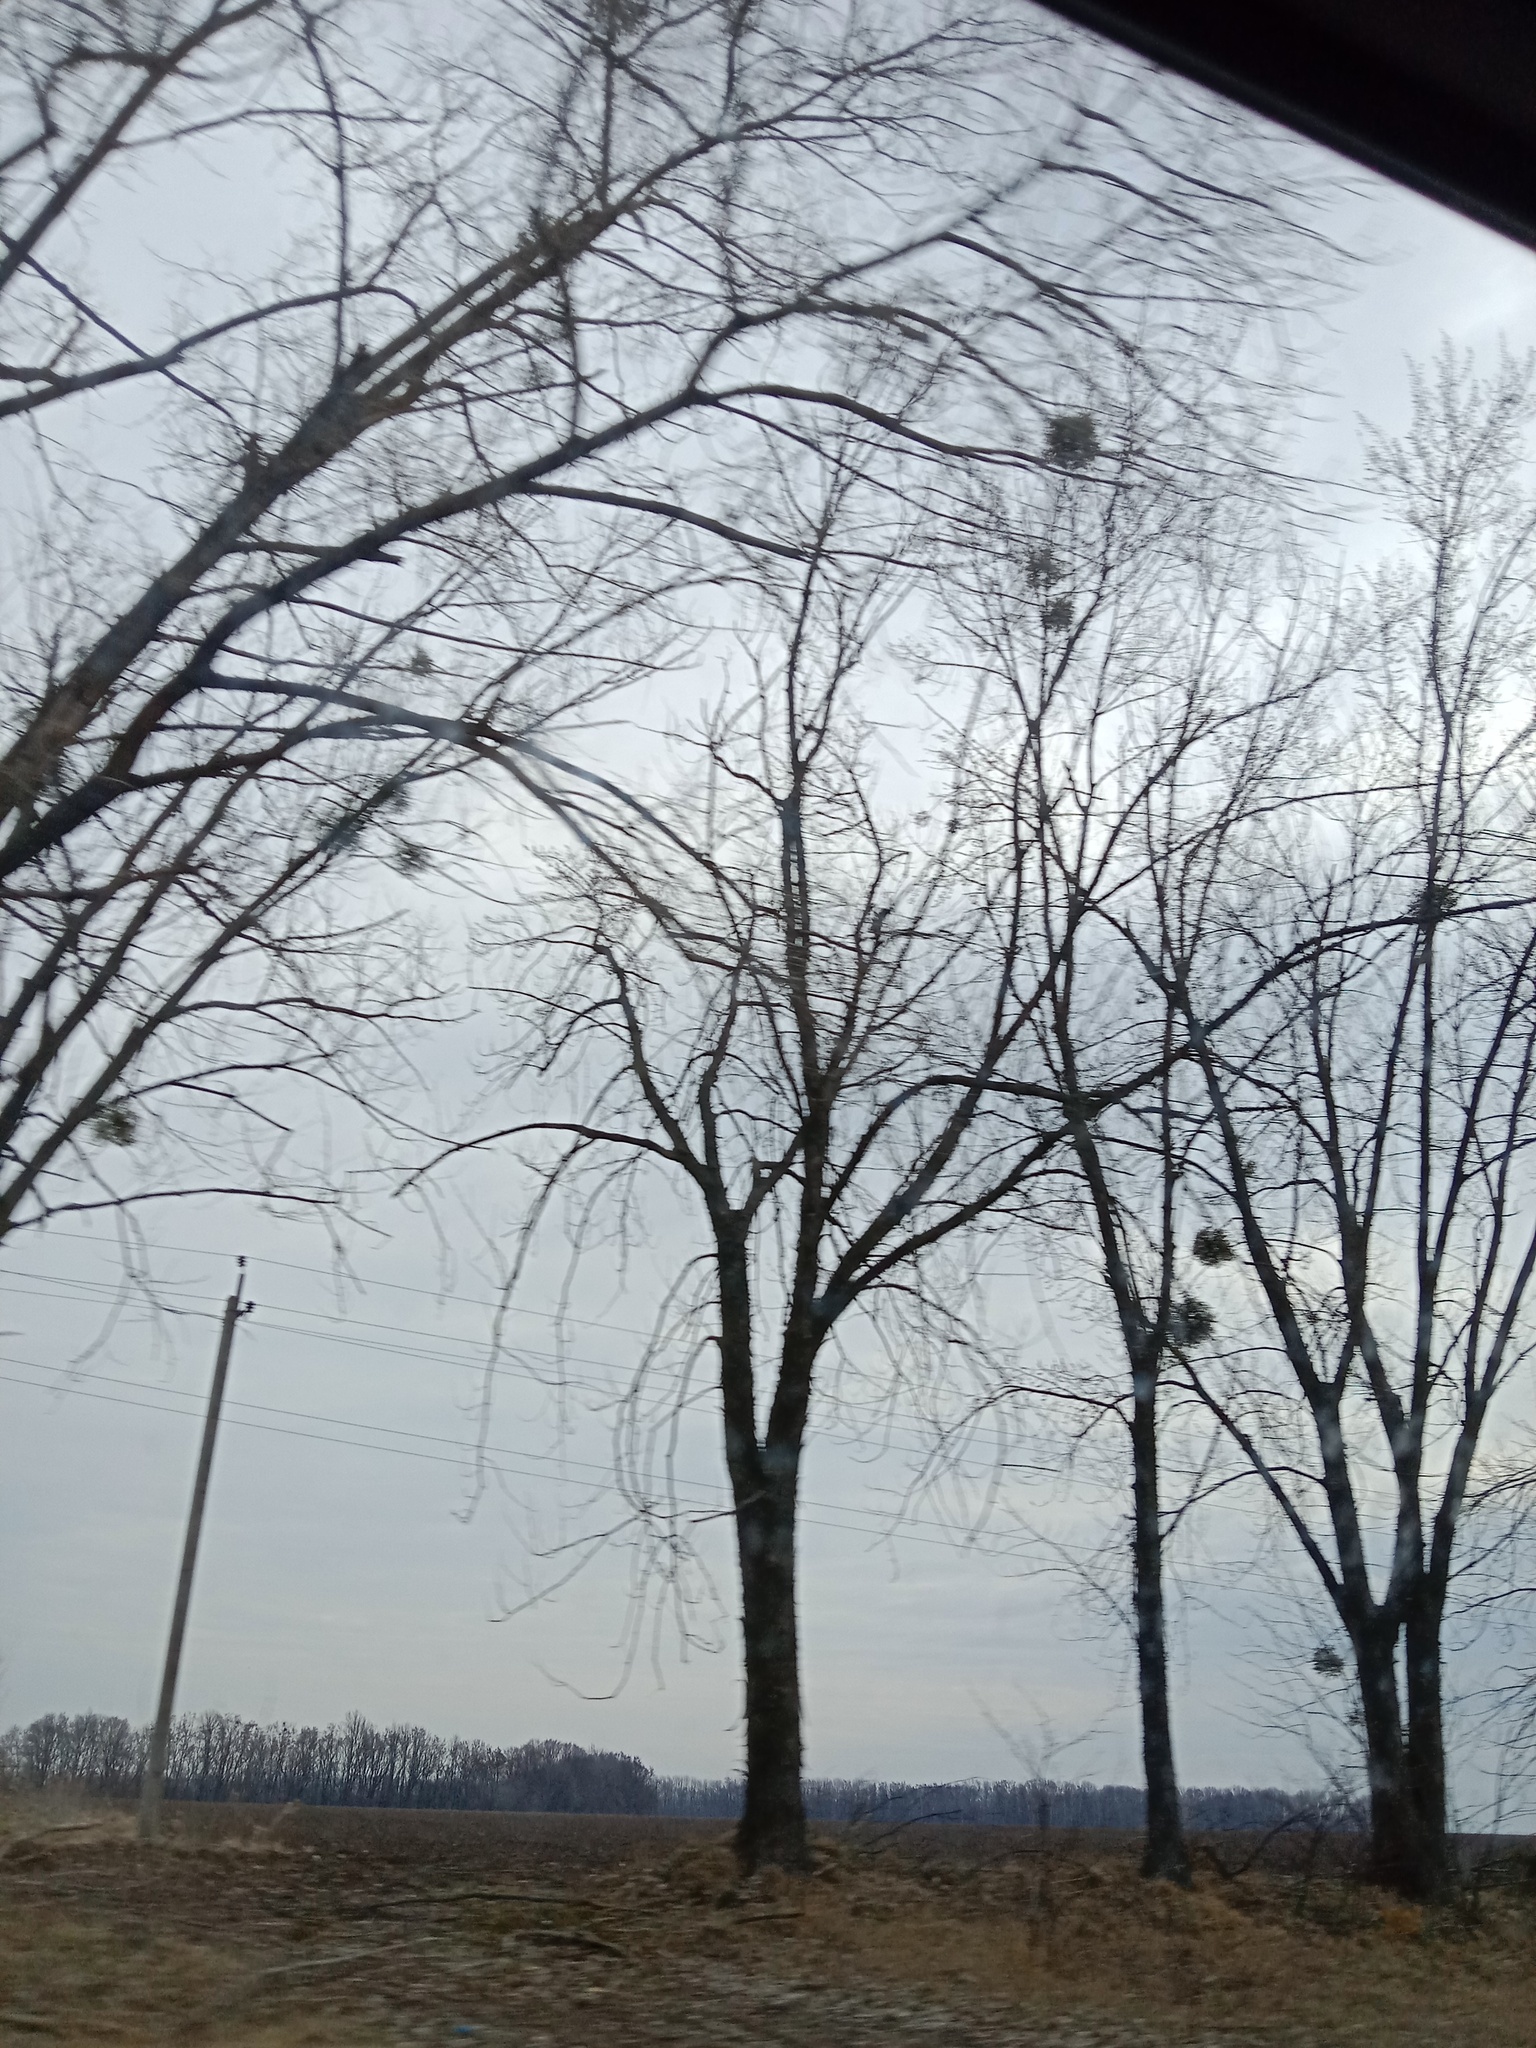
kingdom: Plantae
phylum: Tracheophyta
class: Magnoliopsida
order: Santalales
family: Viscaceae
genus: Viscum
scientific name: Viscum album
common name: Mistletoe
